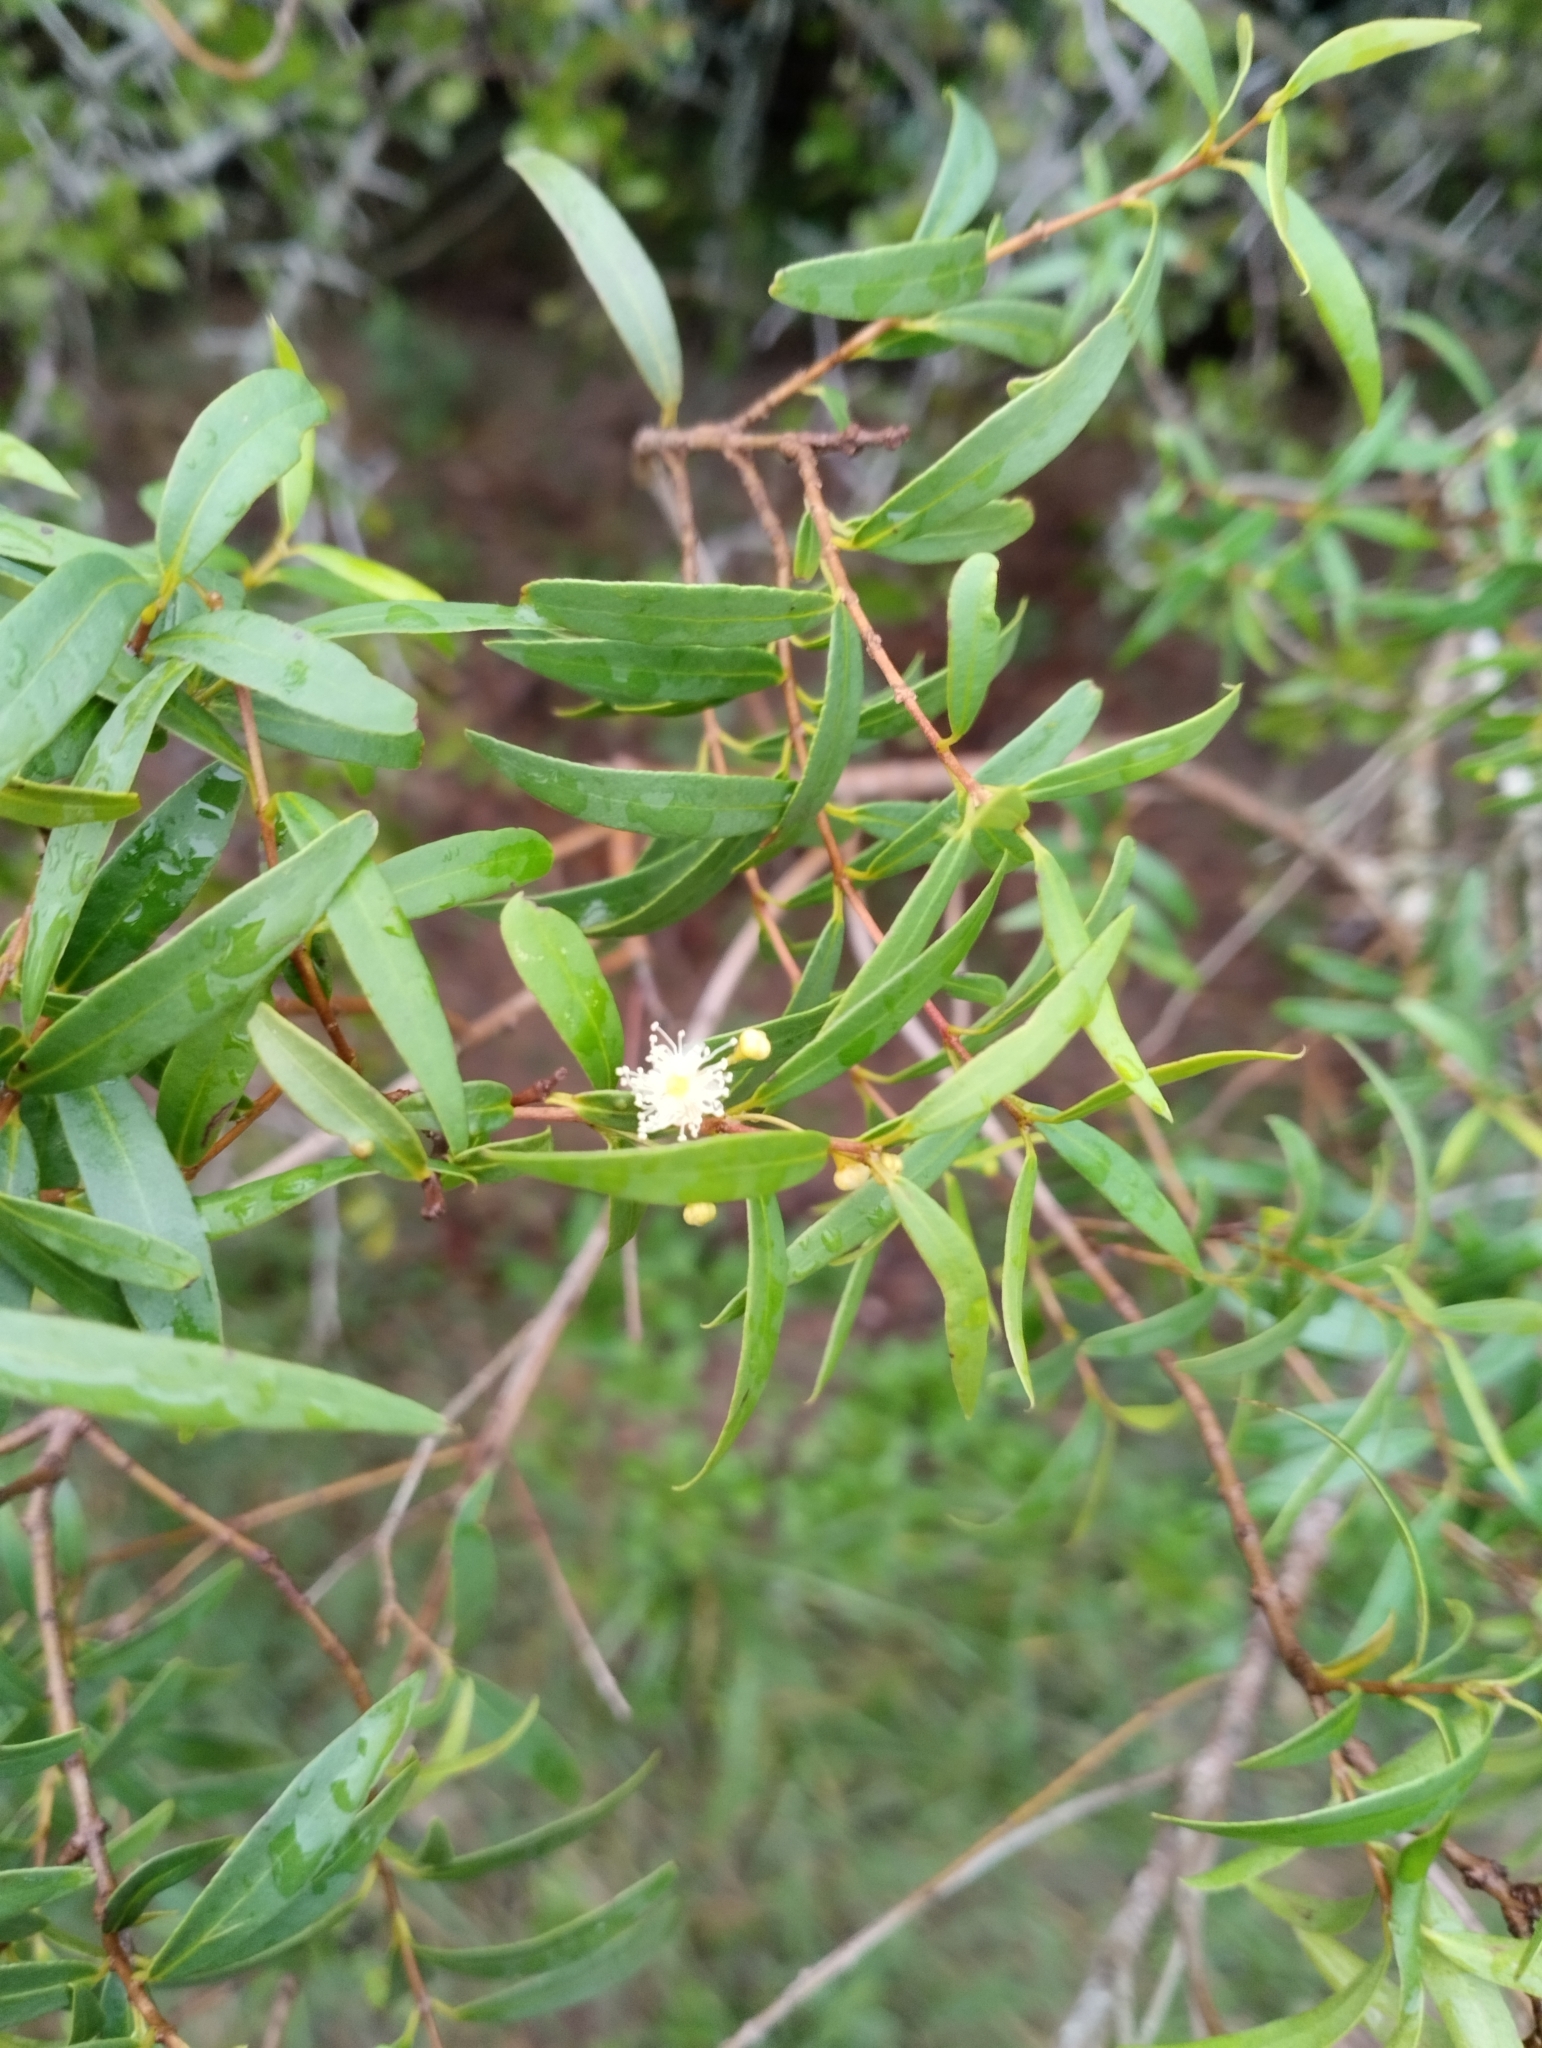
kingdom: Plantae
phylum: Tracheophyta
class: Magnoliopsida
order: Myrtales
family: Myrtaceae
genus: Blepharocalyx
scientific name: Blepharocalyx salicifolius
